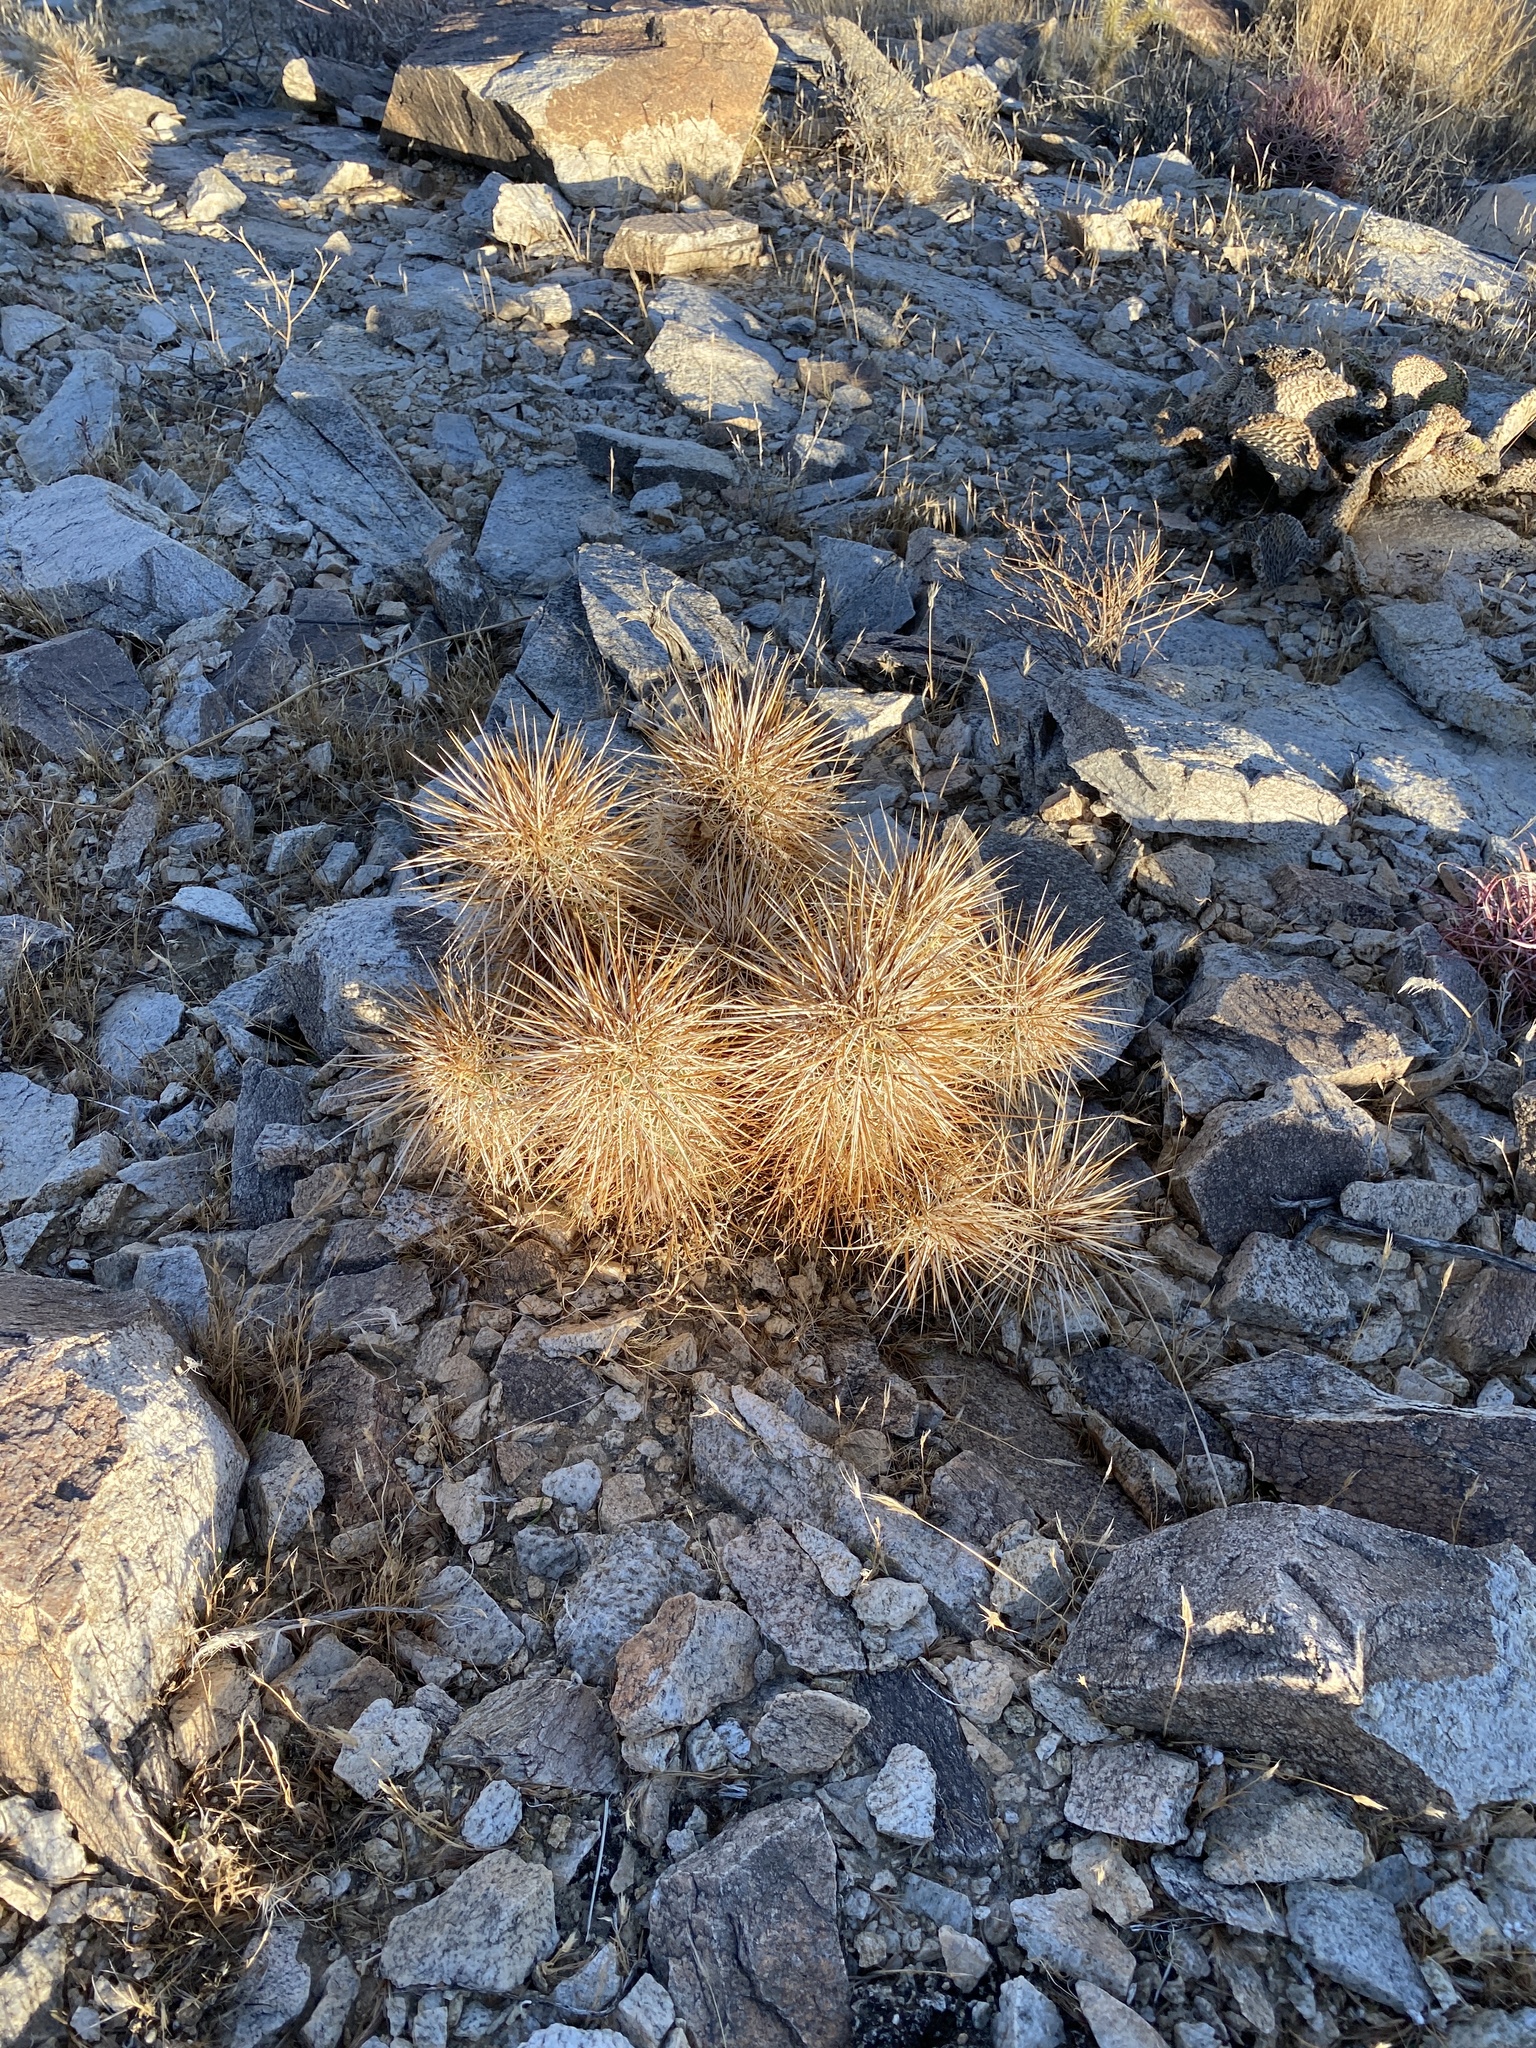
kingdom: Plantae
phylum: Tracheophyta
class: Magnoliopsida
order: Caryophyllales
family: Cactaceae
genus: Echinocereus
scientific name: Echinocereus engelmannii
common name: Engelmann's hedgehog cactus
